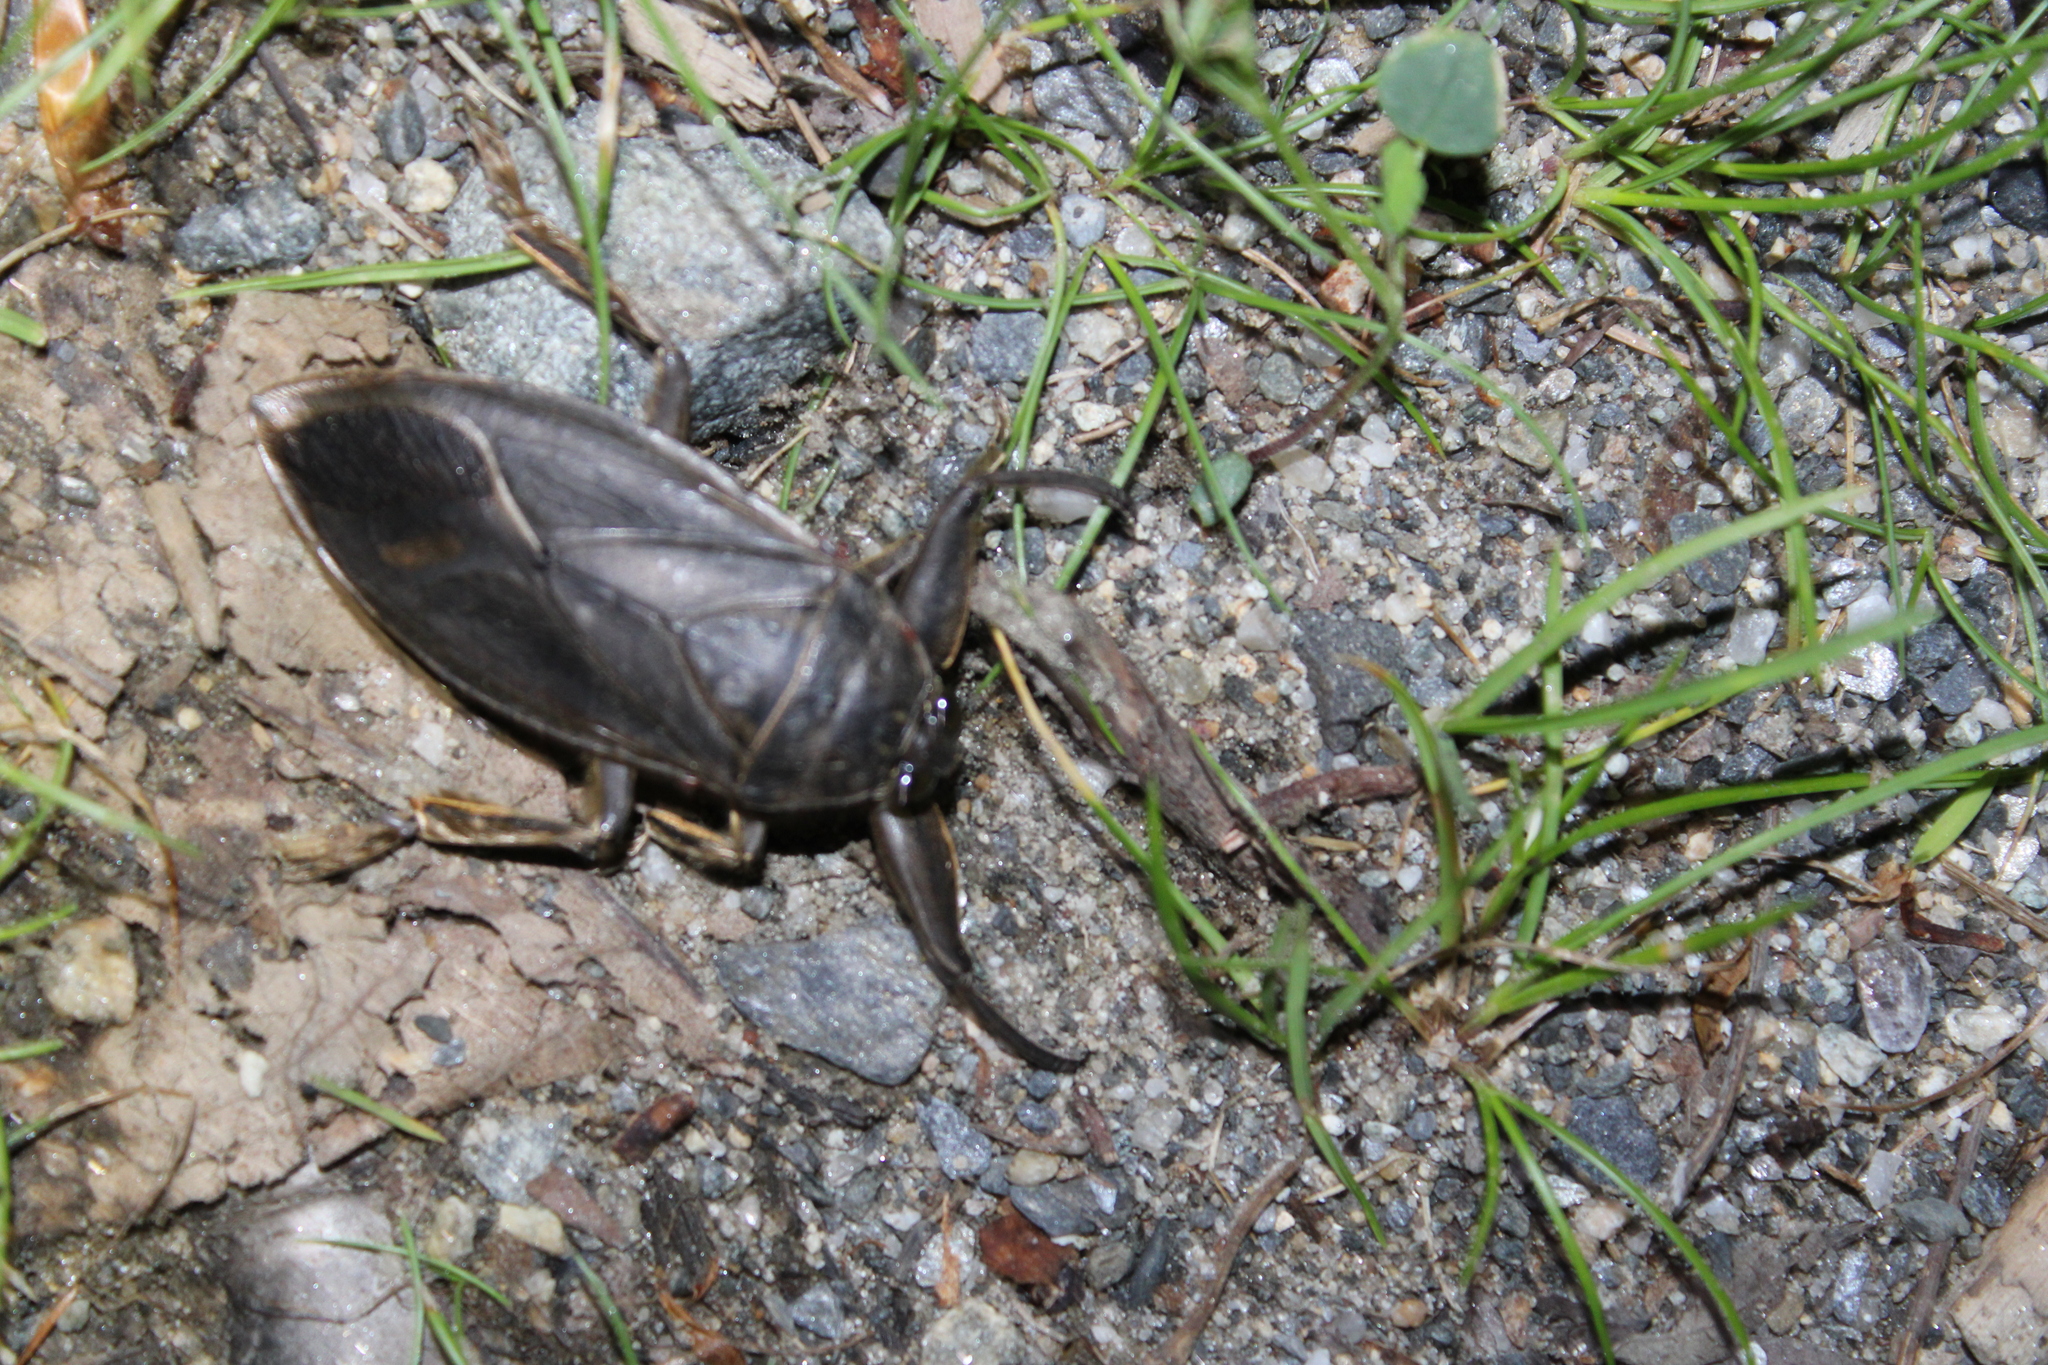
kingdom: Animalia
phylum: Arthropoda
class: Insecta
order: Hemiptera
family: Belostomatidae
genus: Lethocerus
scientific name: Lethocerus americanus
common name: Giant water bug
